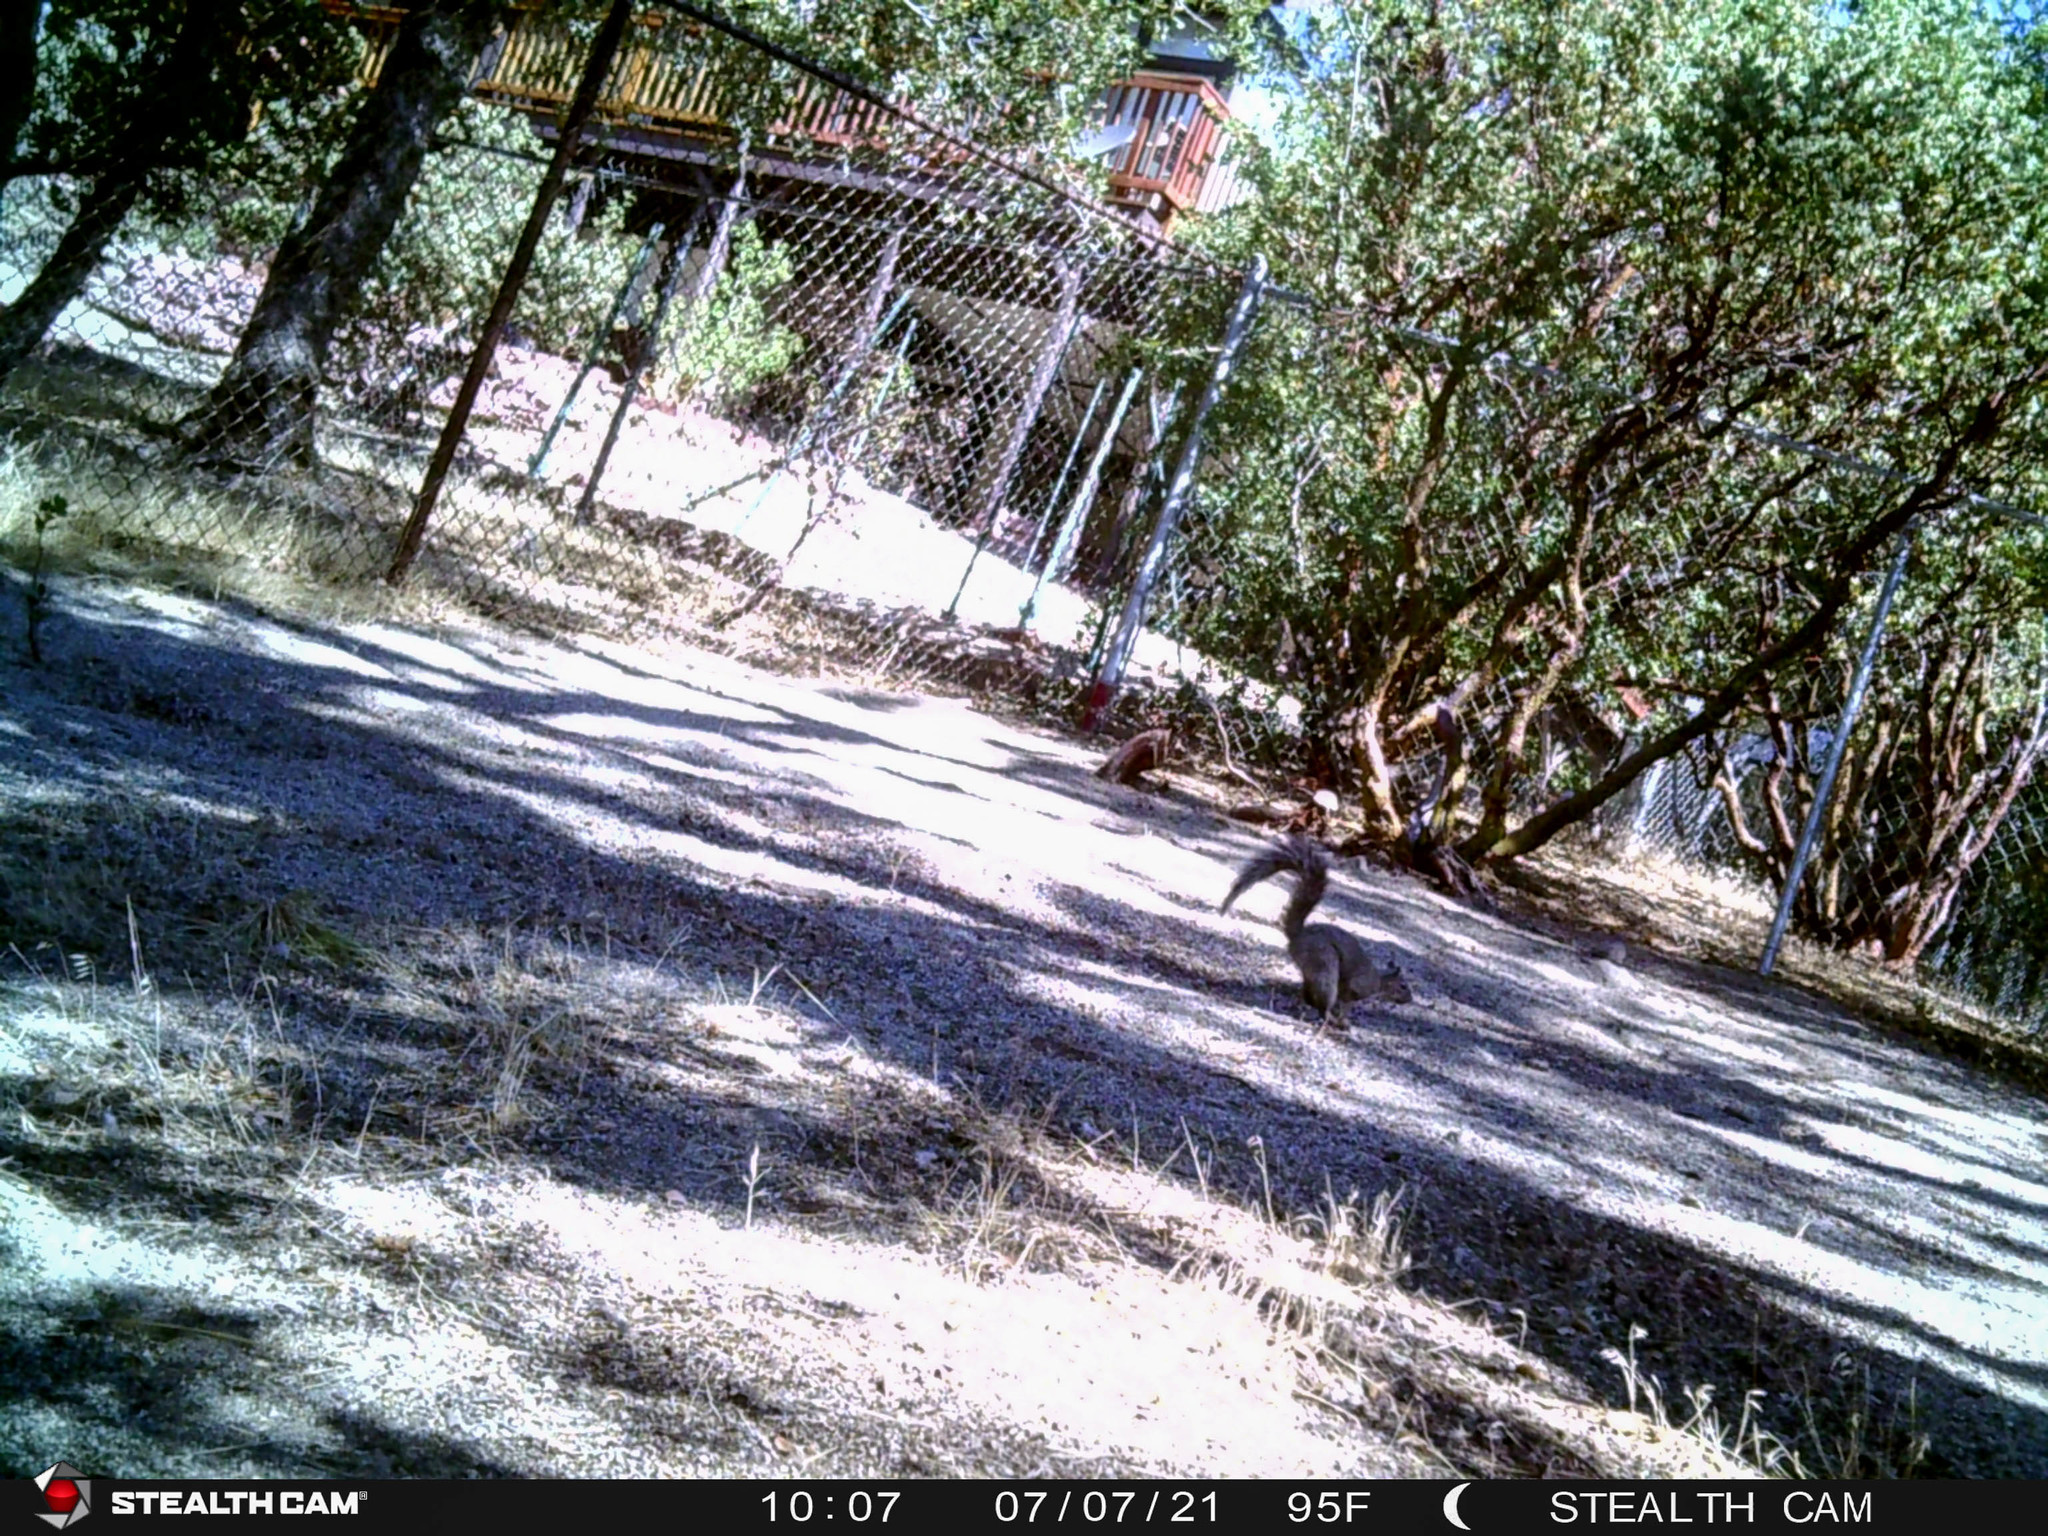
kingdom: Animalia
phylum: Chordata
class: Mammalia
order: Rodentia
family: Sciuridae
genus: Sciurus
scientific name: Sciurus griseus
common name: Western gray squirrel
